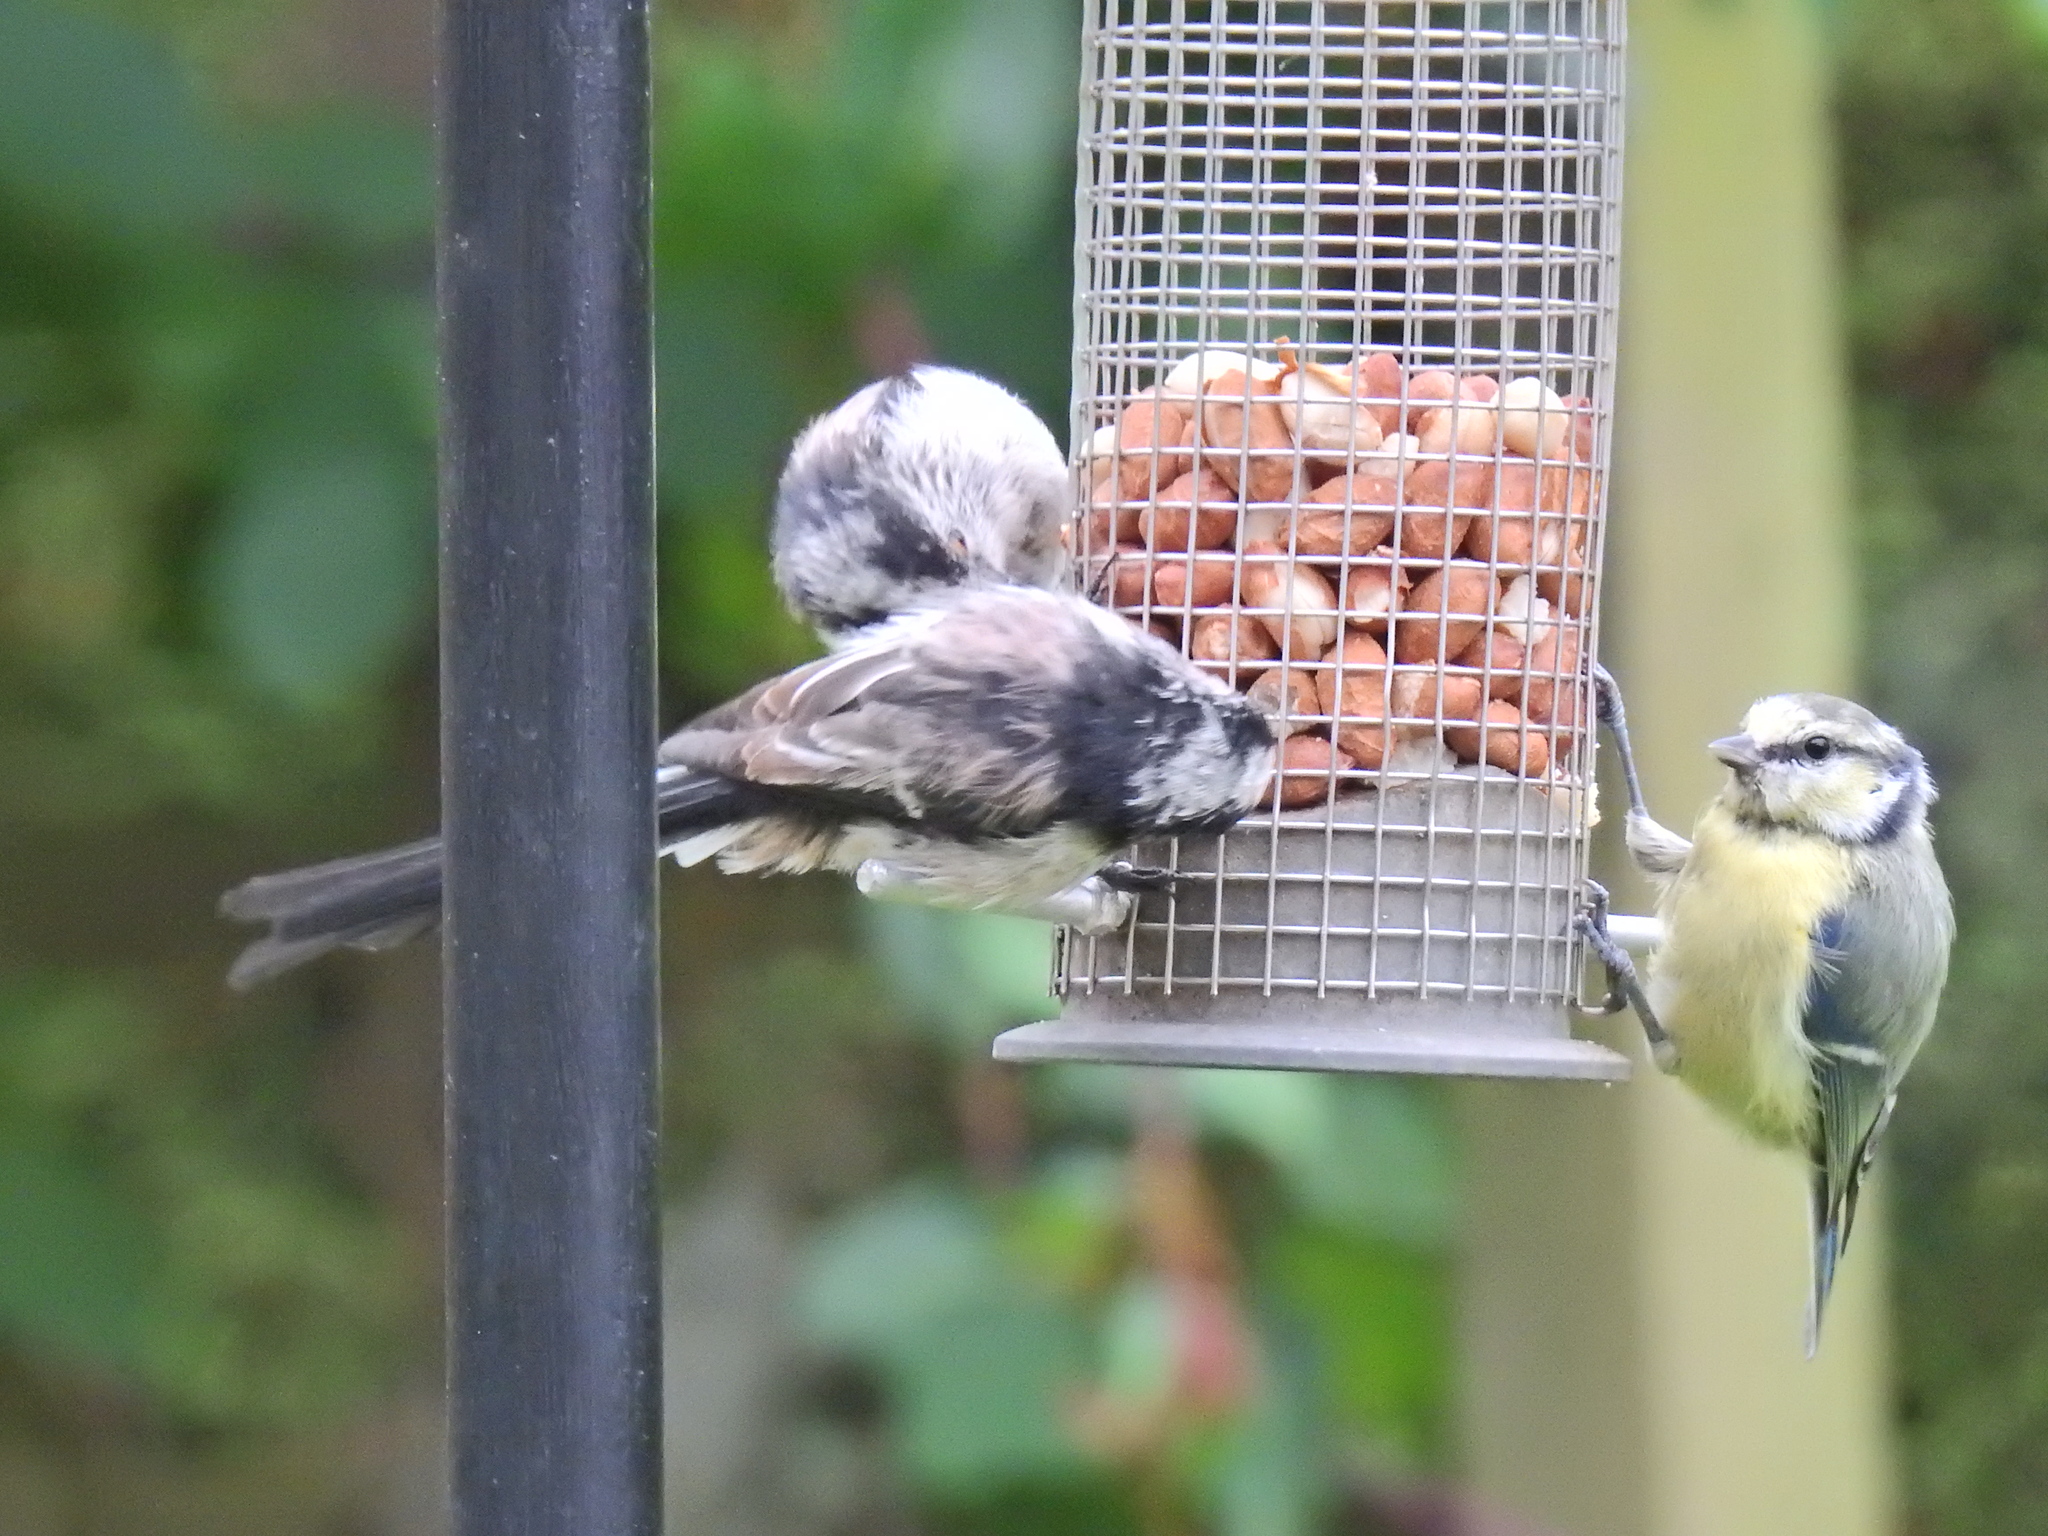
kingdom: Animalia
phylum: Chordata
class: Aves
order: Passeriformes
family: Paridae
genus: Cyanistes
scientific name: Cyanistes caeruleus
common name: Eurasian blue tit
